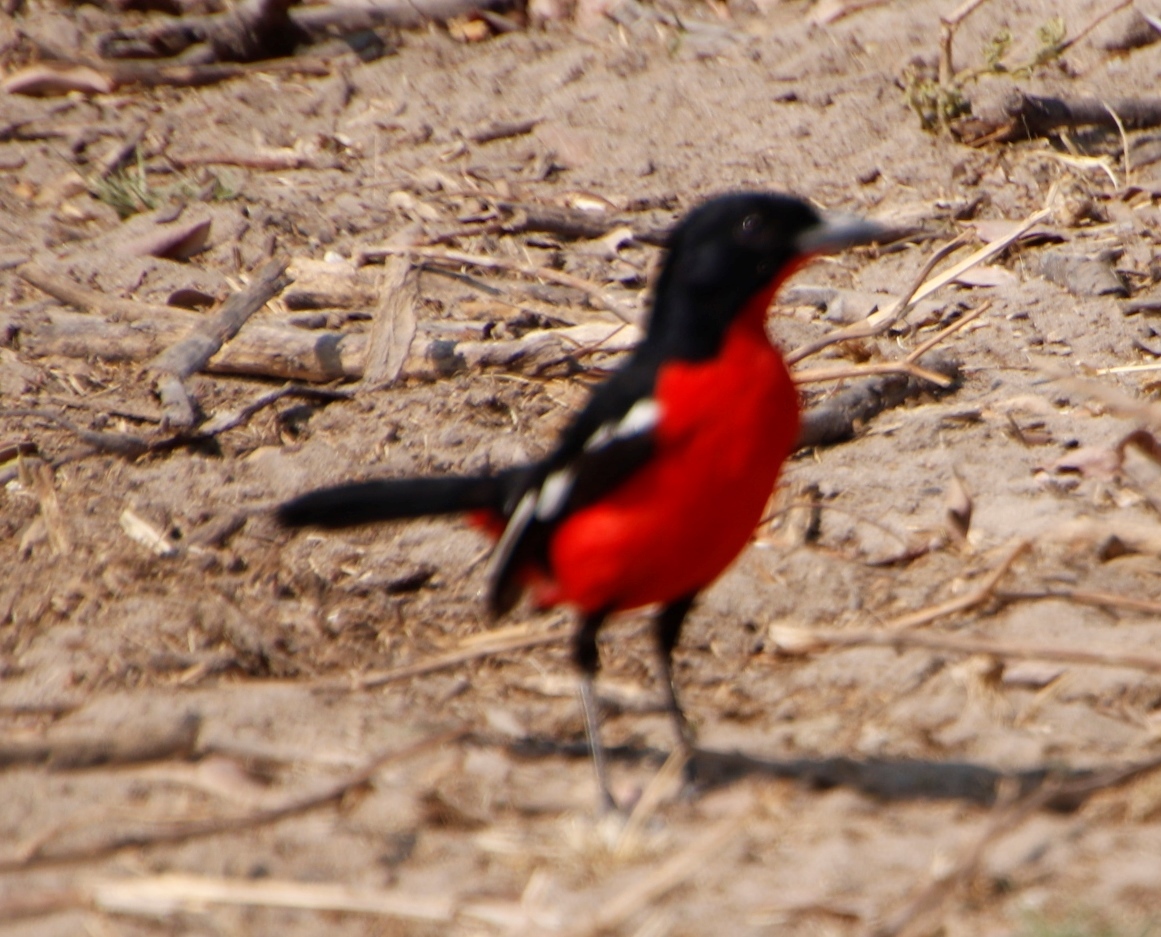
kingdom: Animalia
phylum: Chordata
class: Aves
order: Passeriformes
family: Malaconotidae
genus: Laniarius
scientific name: Laniarius atrococcineus
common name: Crimson-breasted shrike
